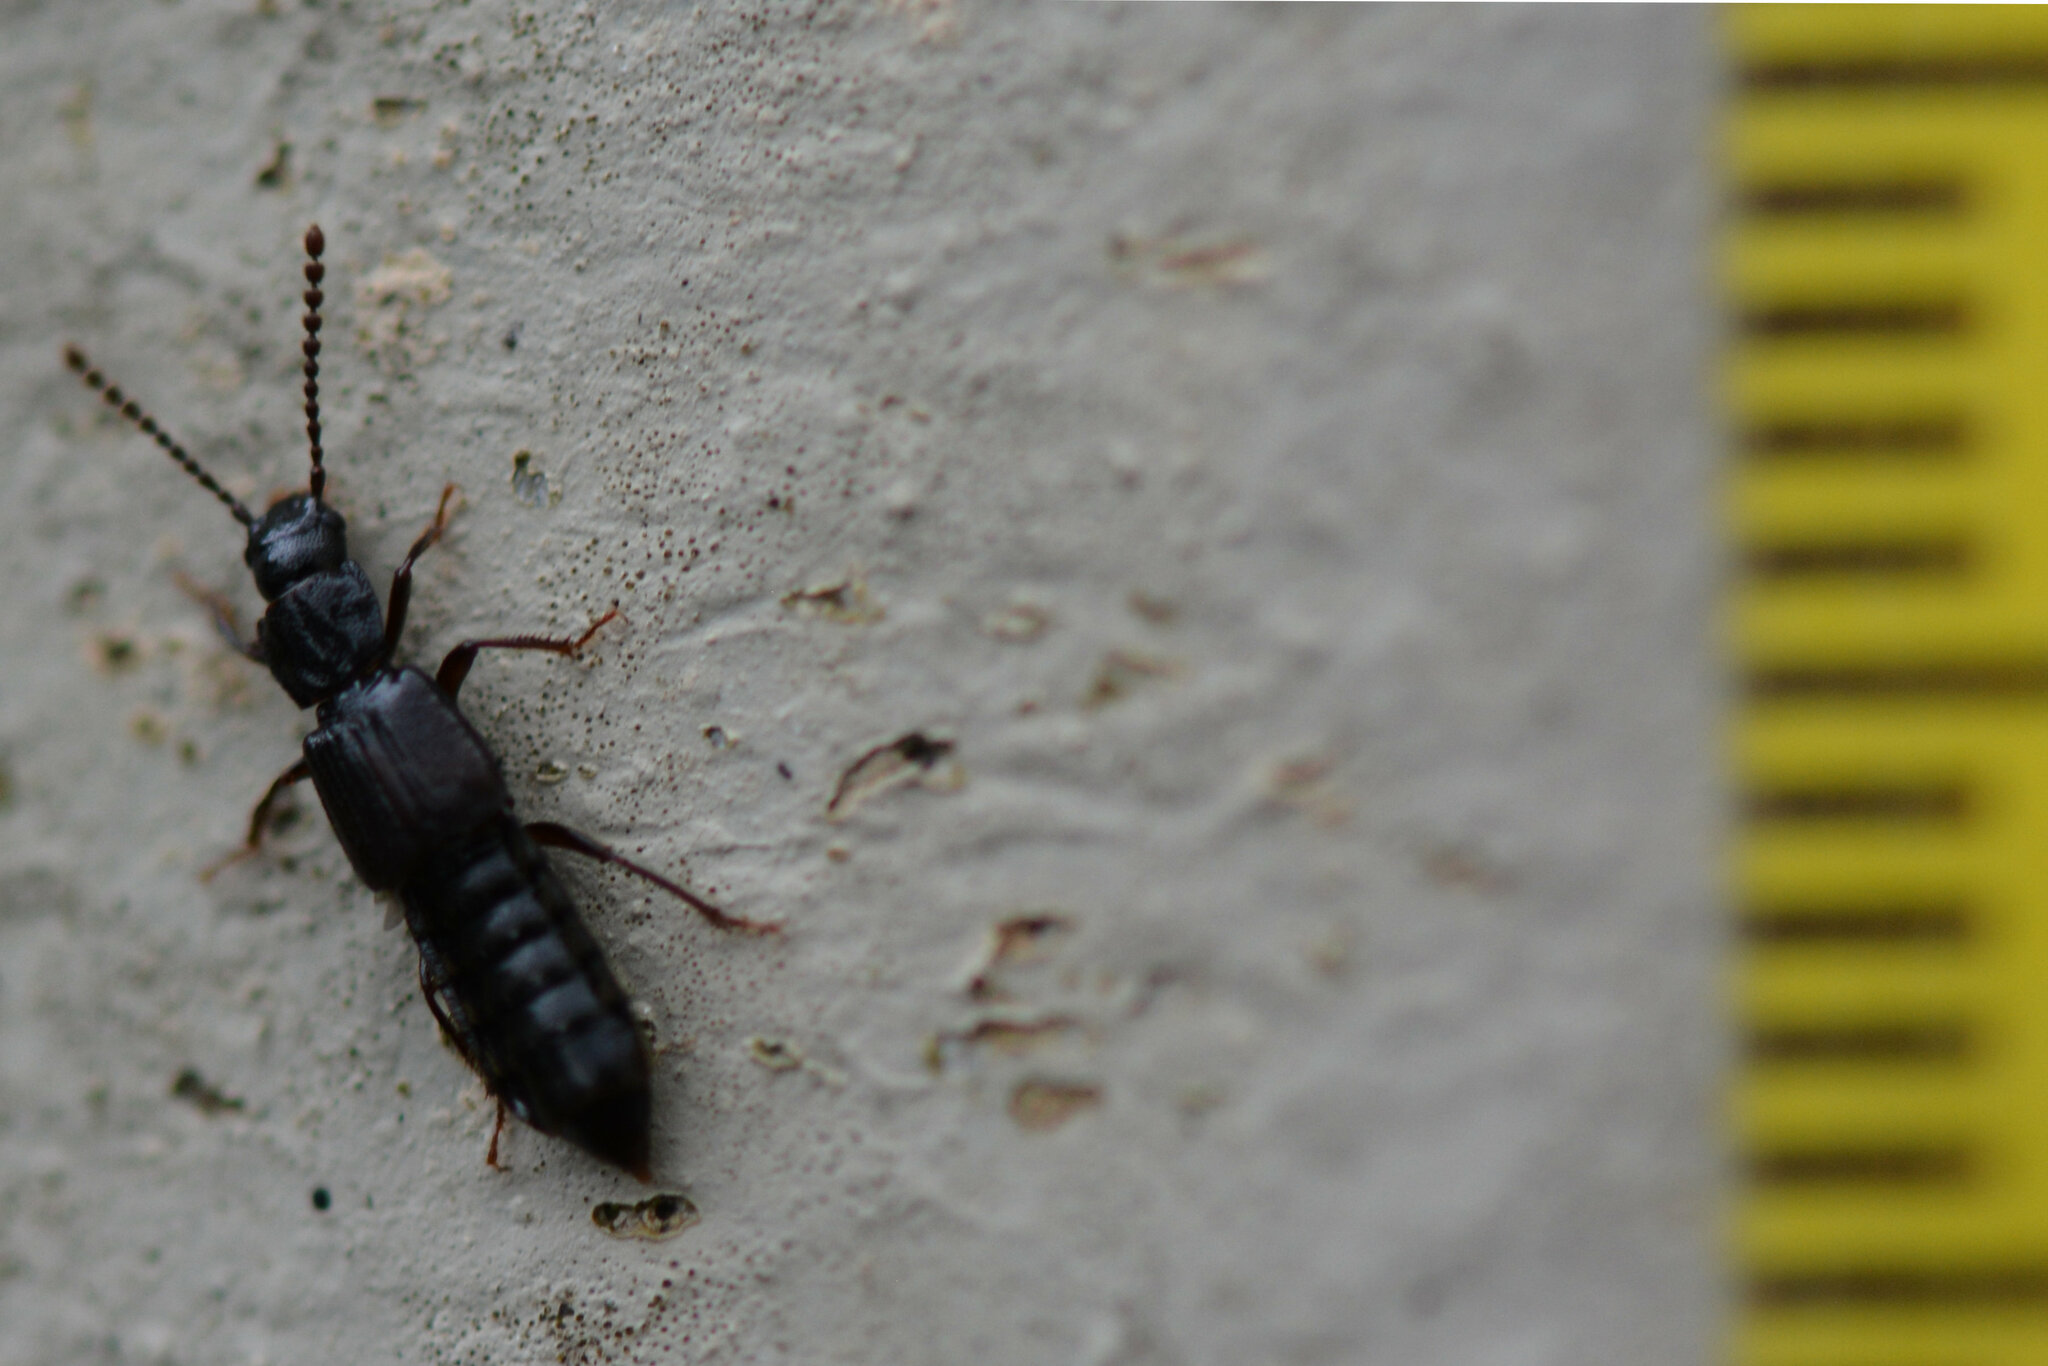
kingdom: Animalia
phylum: Arthropoda
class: Insecta
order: Coleoptera
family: Staphylinidae
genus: Coprophilus
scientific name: Coprophilus striatulus
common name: Rove beetle
